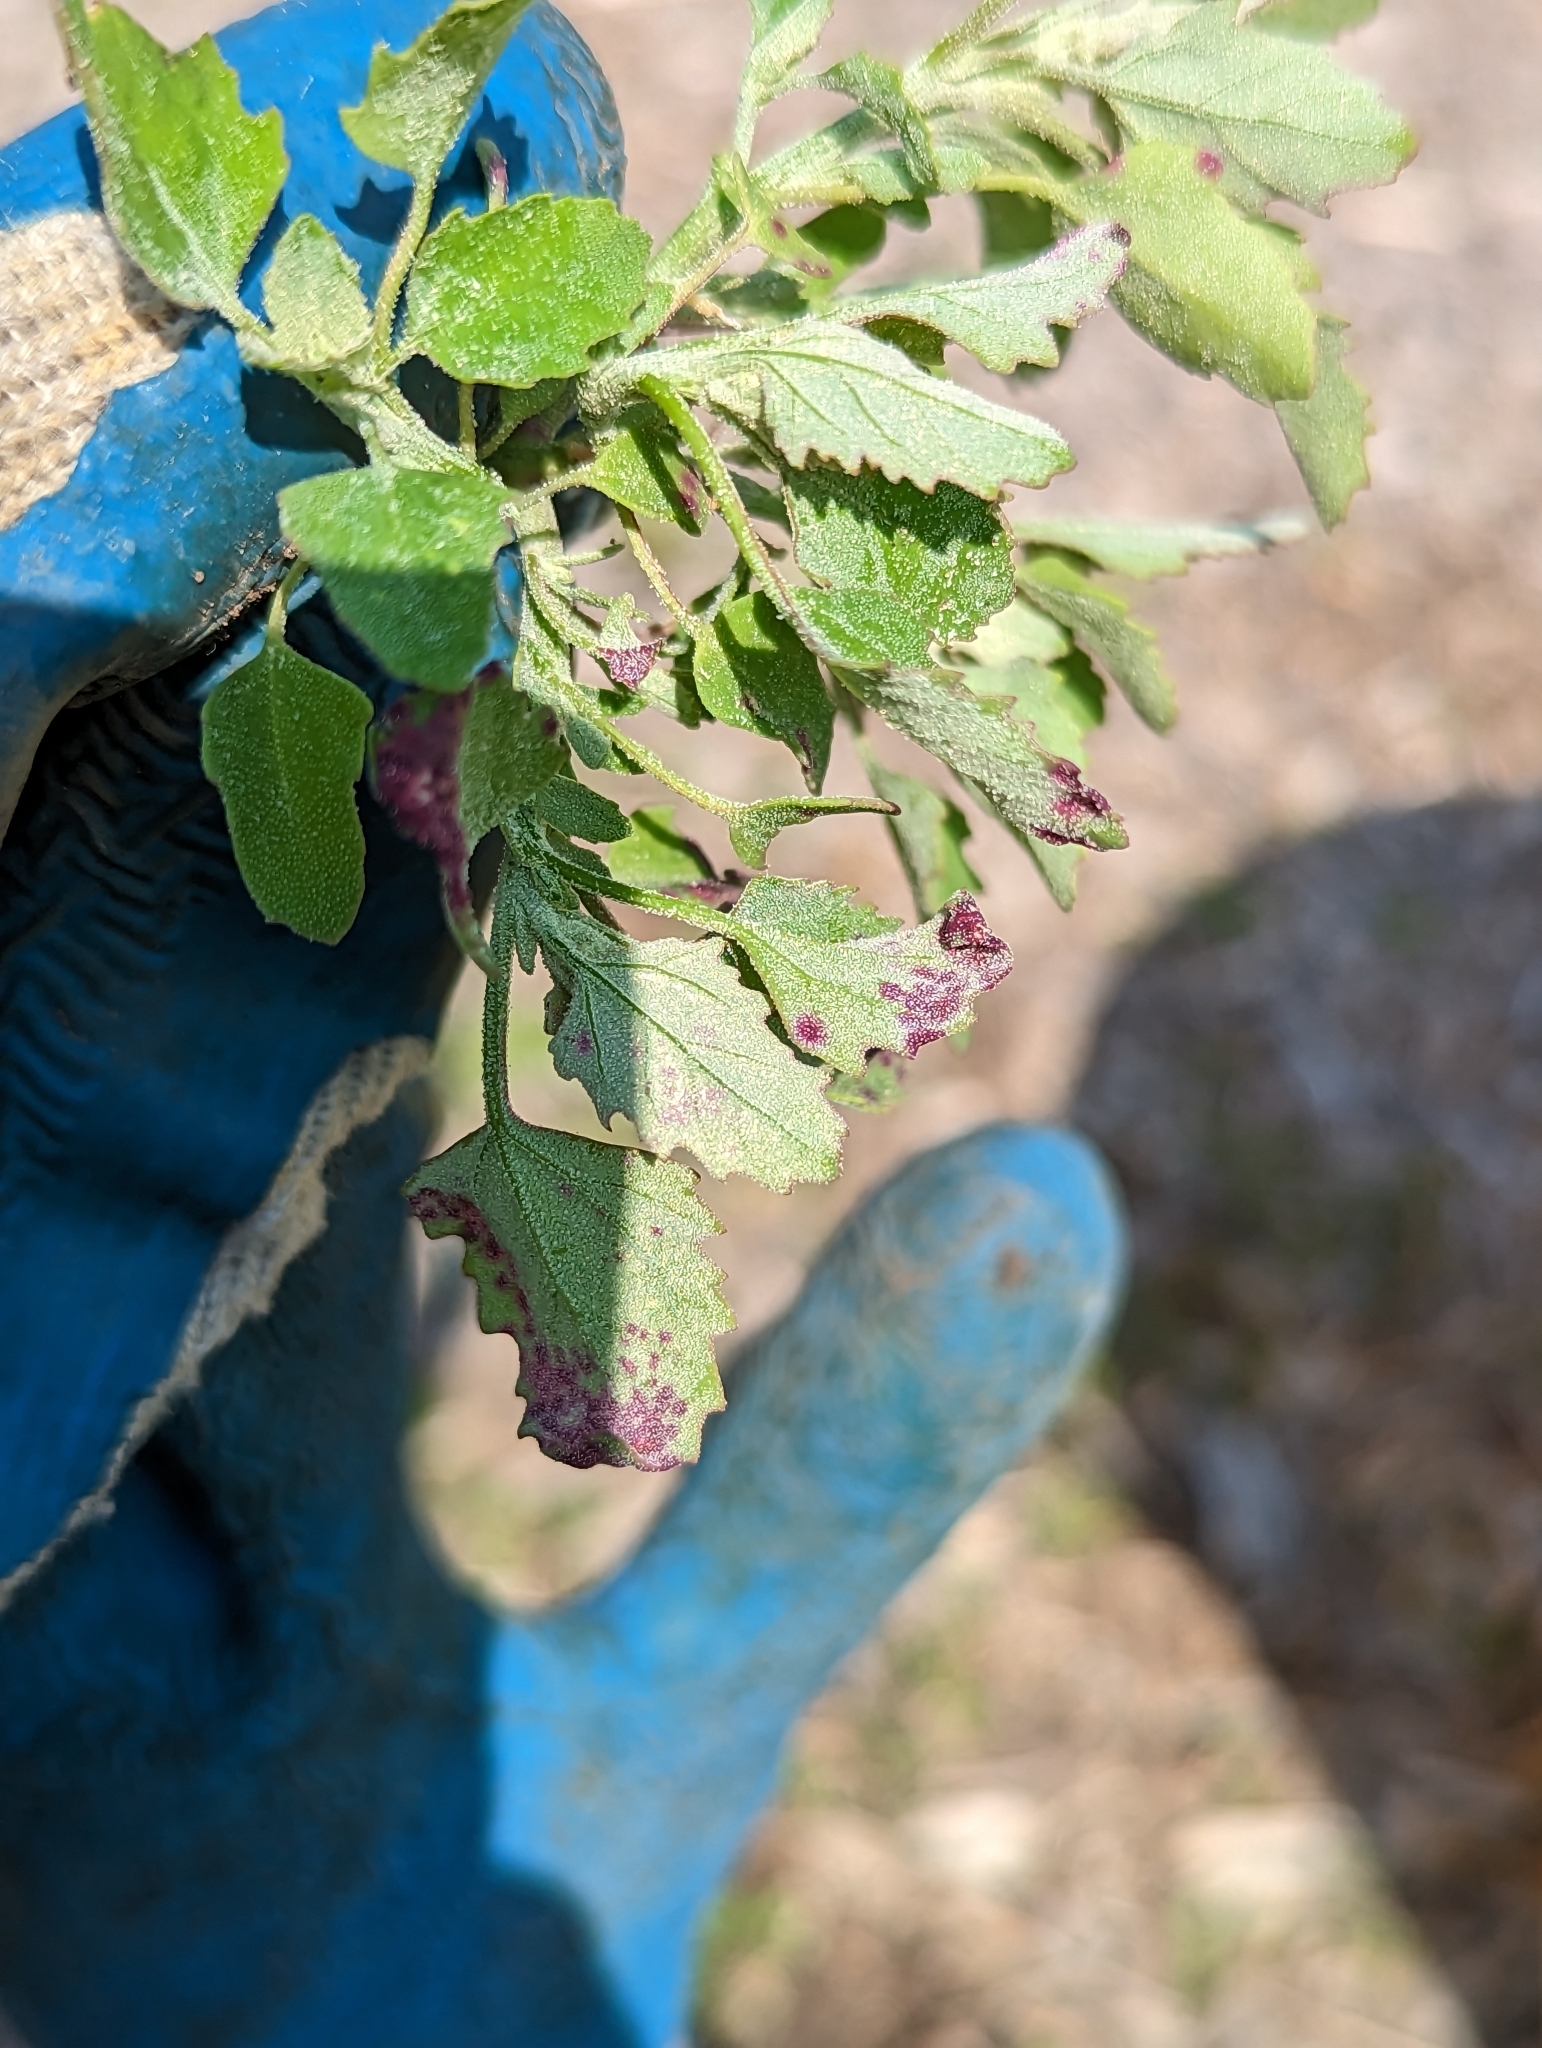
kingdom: Animalia
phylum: Arthropoda
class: Insecta
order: Hemiptera
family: Cicadellidae
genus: Norvellina
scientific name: Norvellina chenopodii
